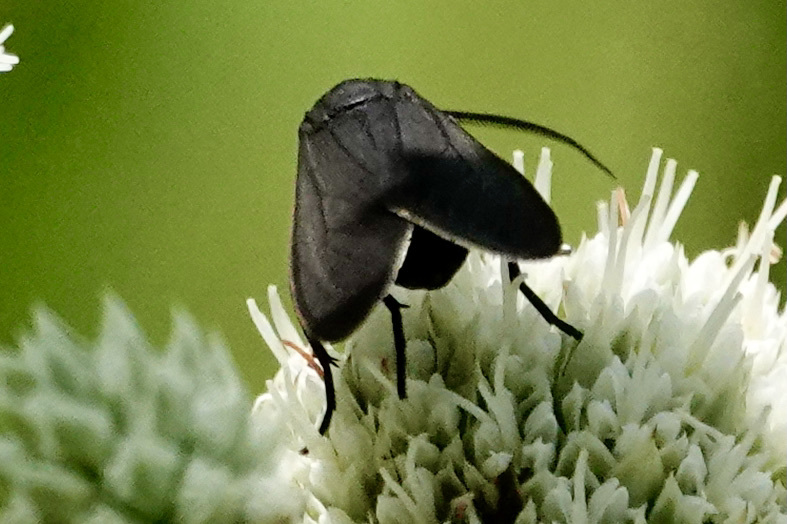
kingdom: Animalia
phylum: Arthropoda
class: Insecta
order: Lepidoptera
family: Erebidae
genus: Cisseps
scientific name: Cisseps fulvicollis
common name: Yellow-collared scape moth
